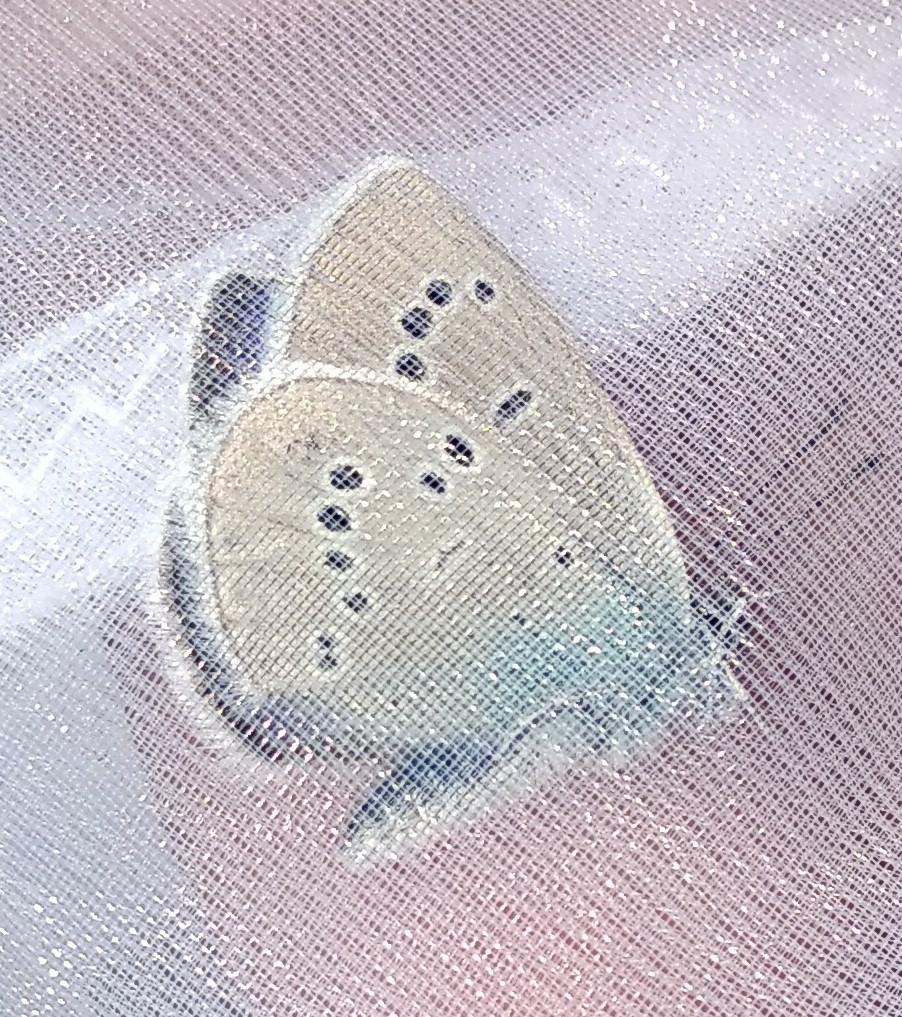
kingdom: Animalia
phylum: Arthropoda
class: Insecta
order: Lepidoptera
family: Lycaenidae
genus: Cyaniris
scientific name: Cyaniris semiargus
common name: Mazarine blue
